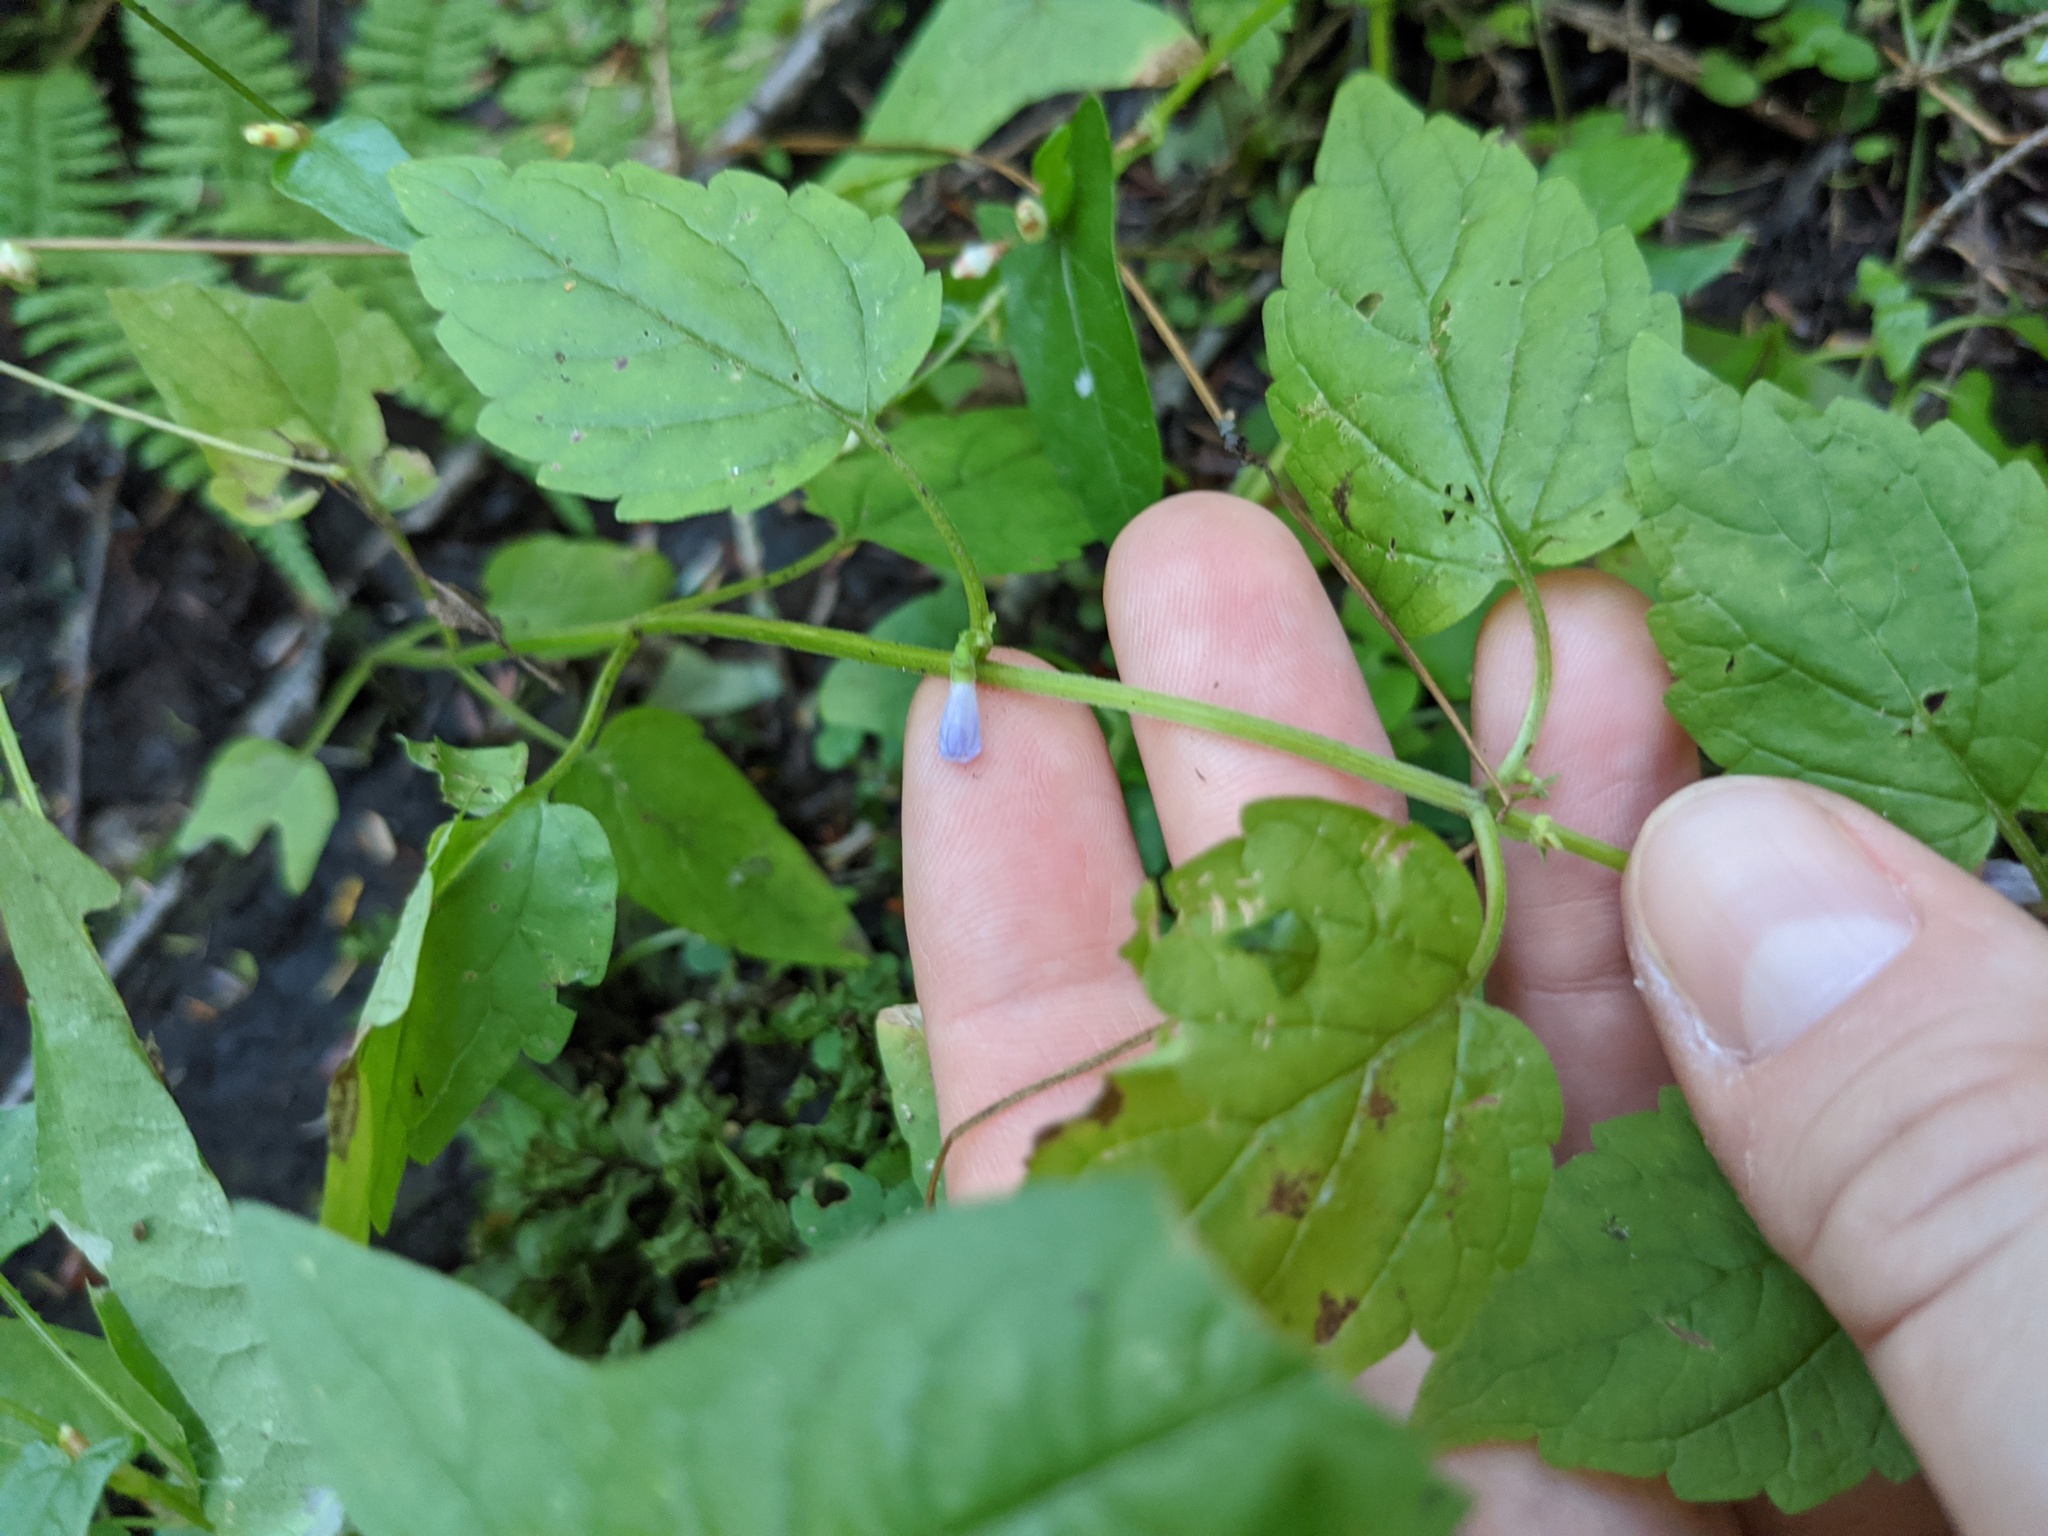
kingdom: Plantae
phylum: Tracheophyta
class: Magnoliopsida
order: Lamiales
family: Lamiaceae
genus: Scutellaria
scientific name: Scutellaria lateriflora
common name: Blue skullcap
